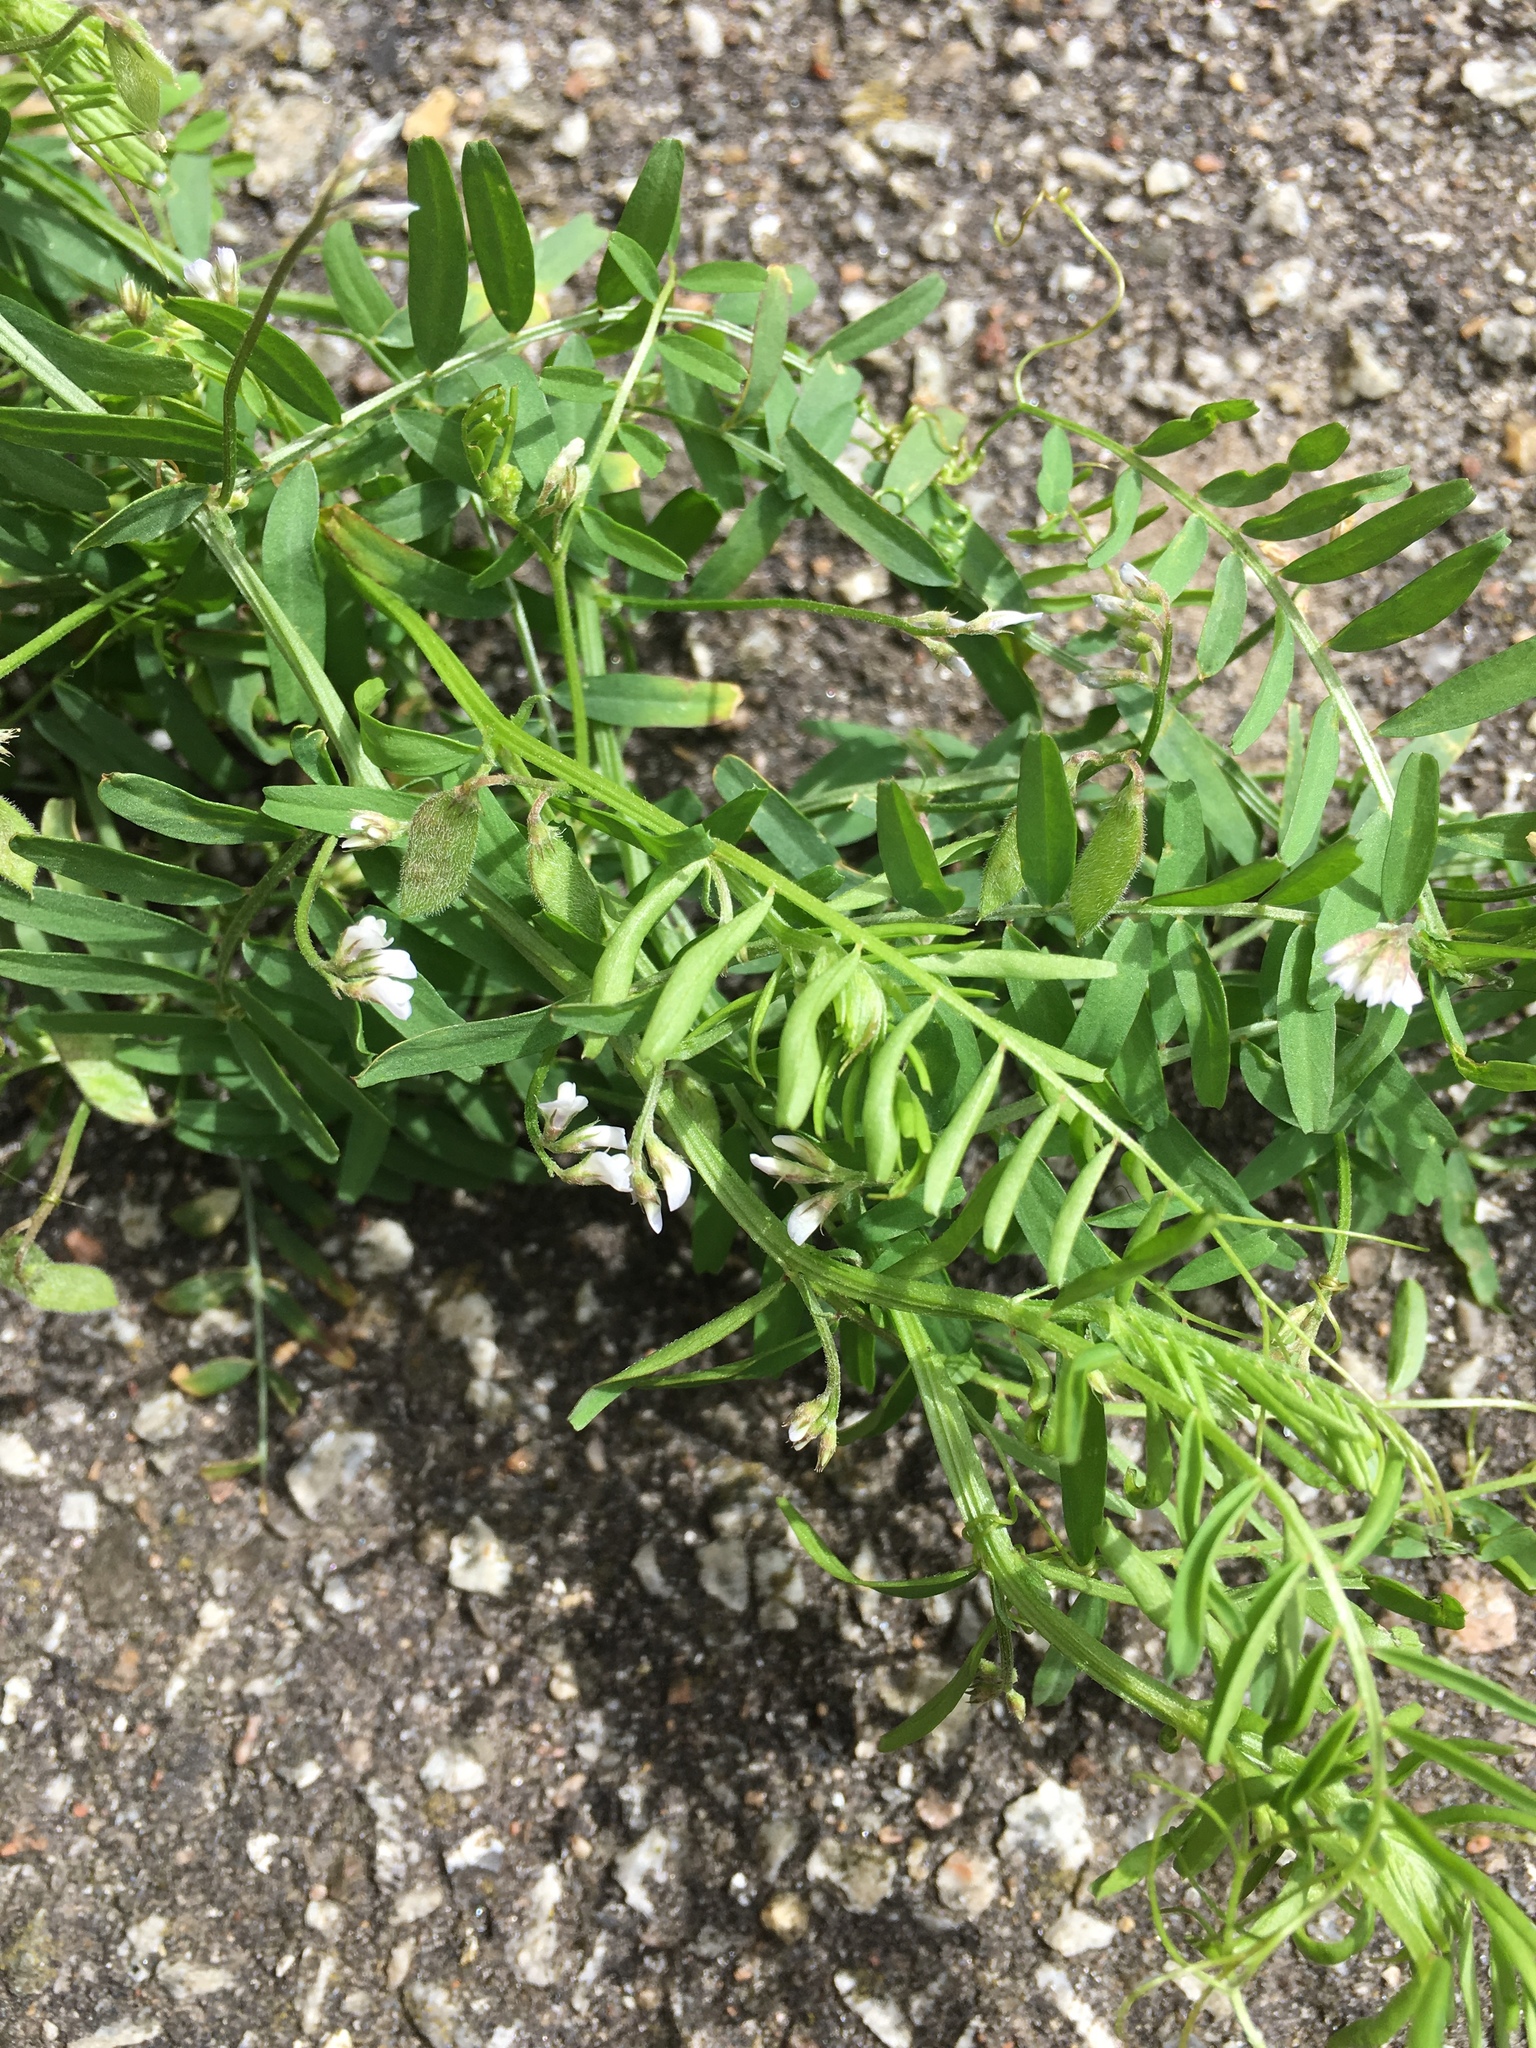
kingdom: Plantae
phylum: Tracheophyta
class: Magnoliopsida
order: Fabales
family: Fabaceae
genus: Vicia
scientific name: Vicia hirsuta
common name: Tiny vetch
